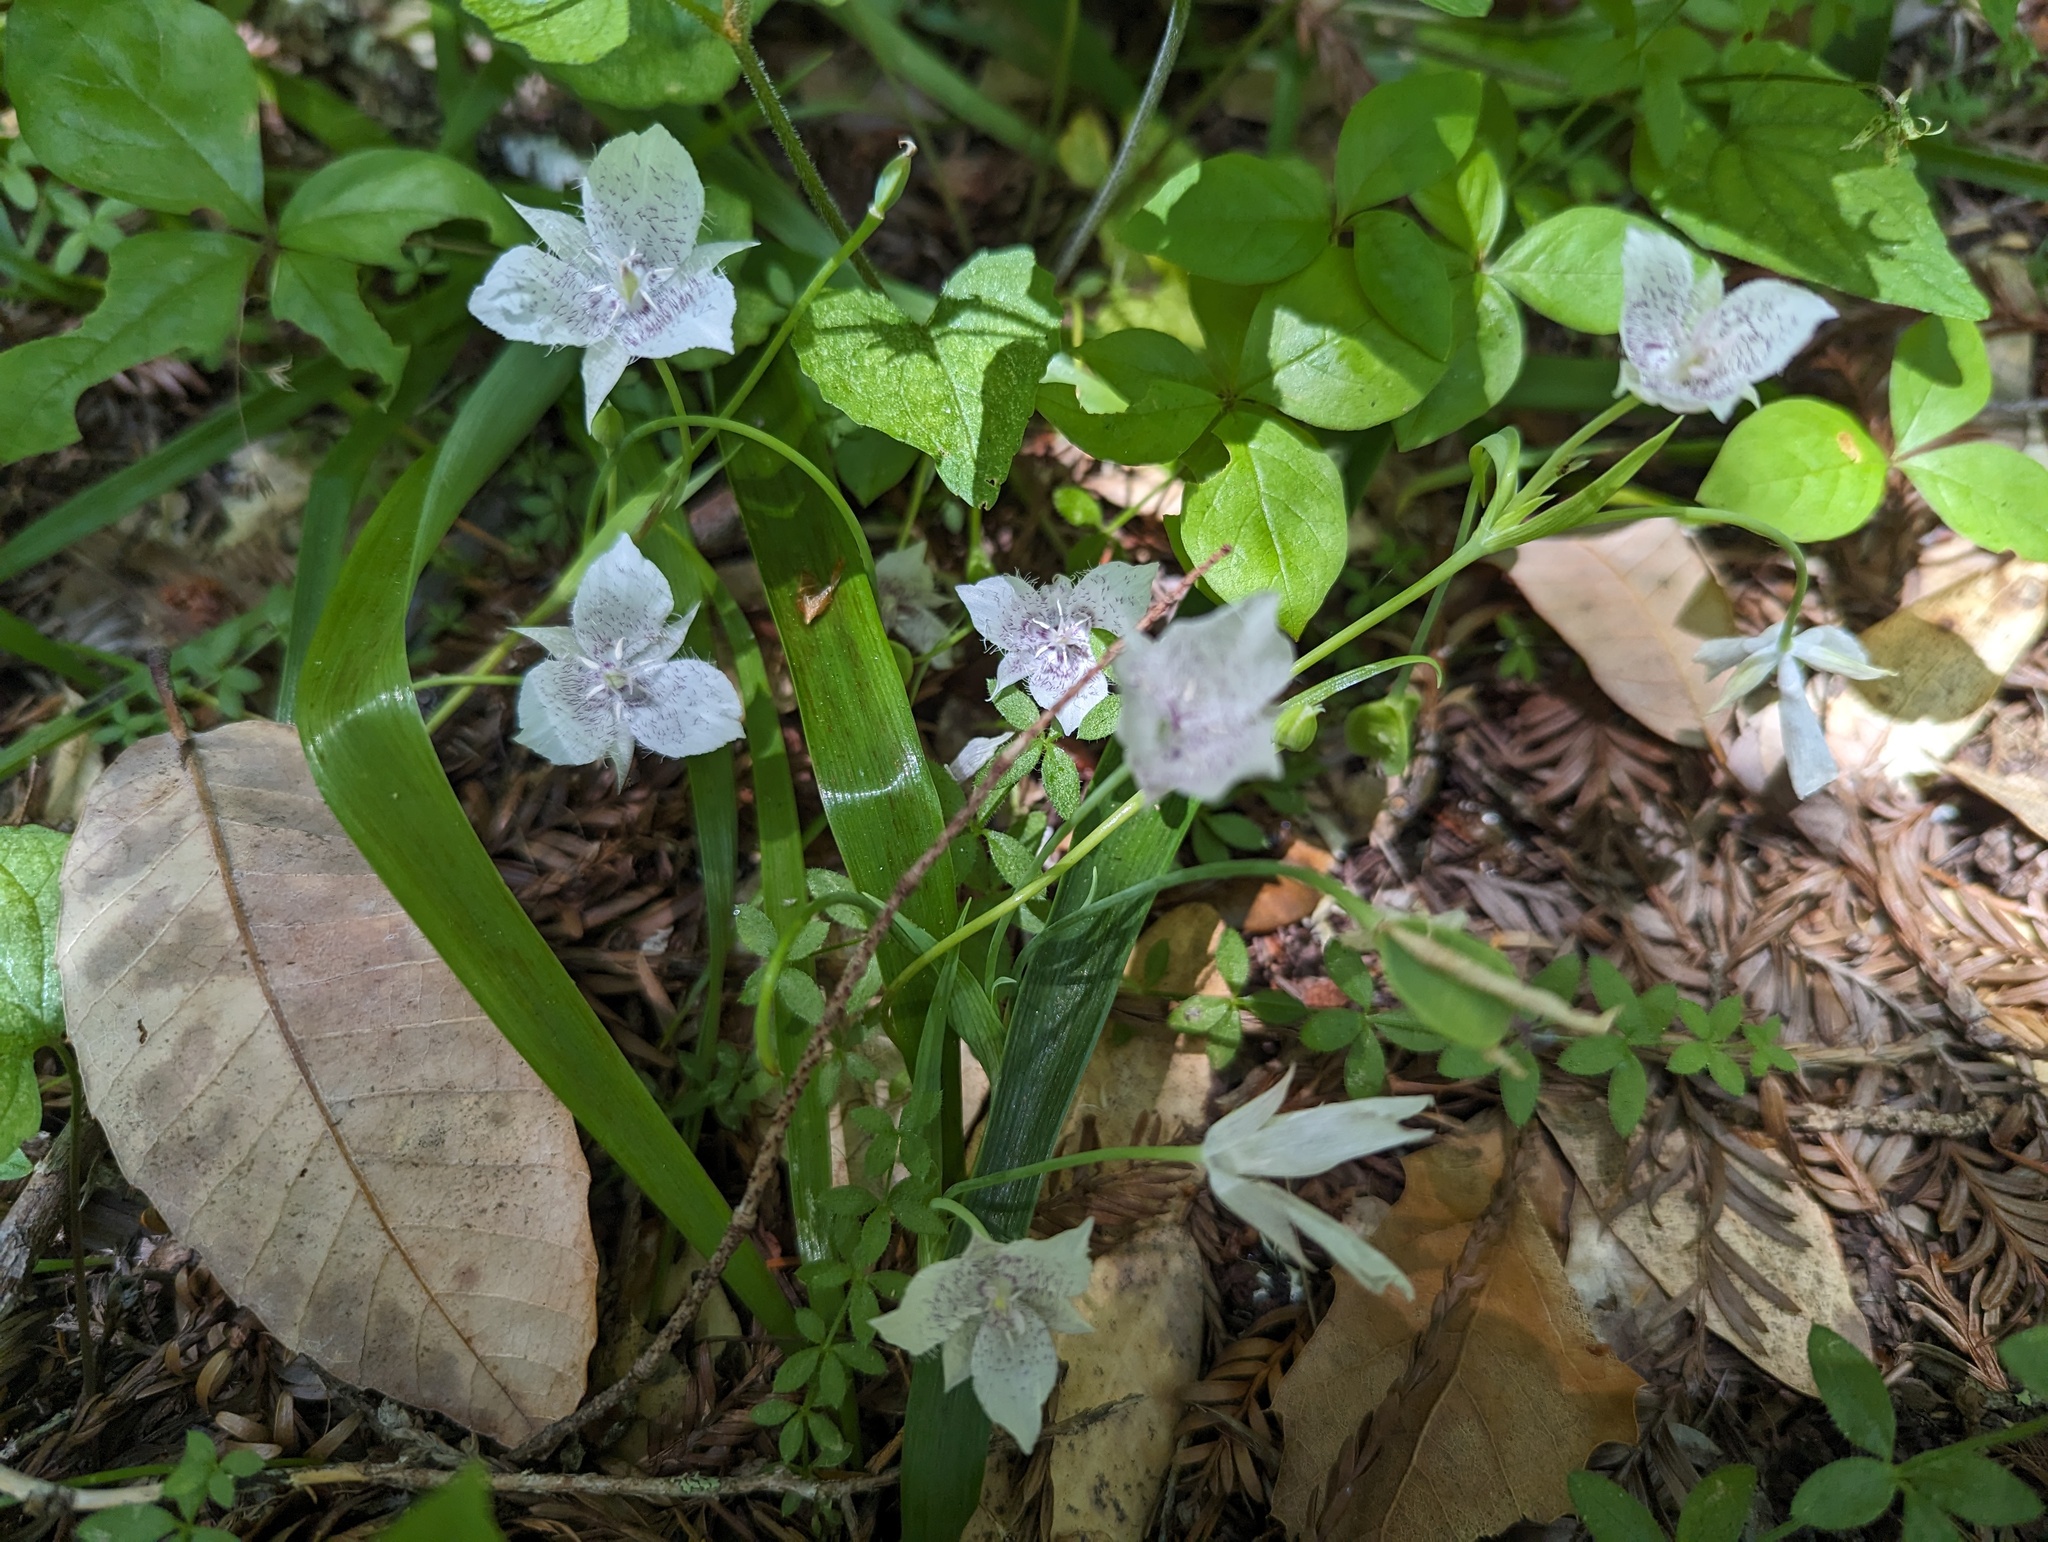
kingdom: Plantae
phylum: Tracheophyta
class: Liliopsida
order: Liliales
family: Liliaceae
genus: Calochortus
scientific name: Calochortus tolmiei
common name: Pussy-ears
